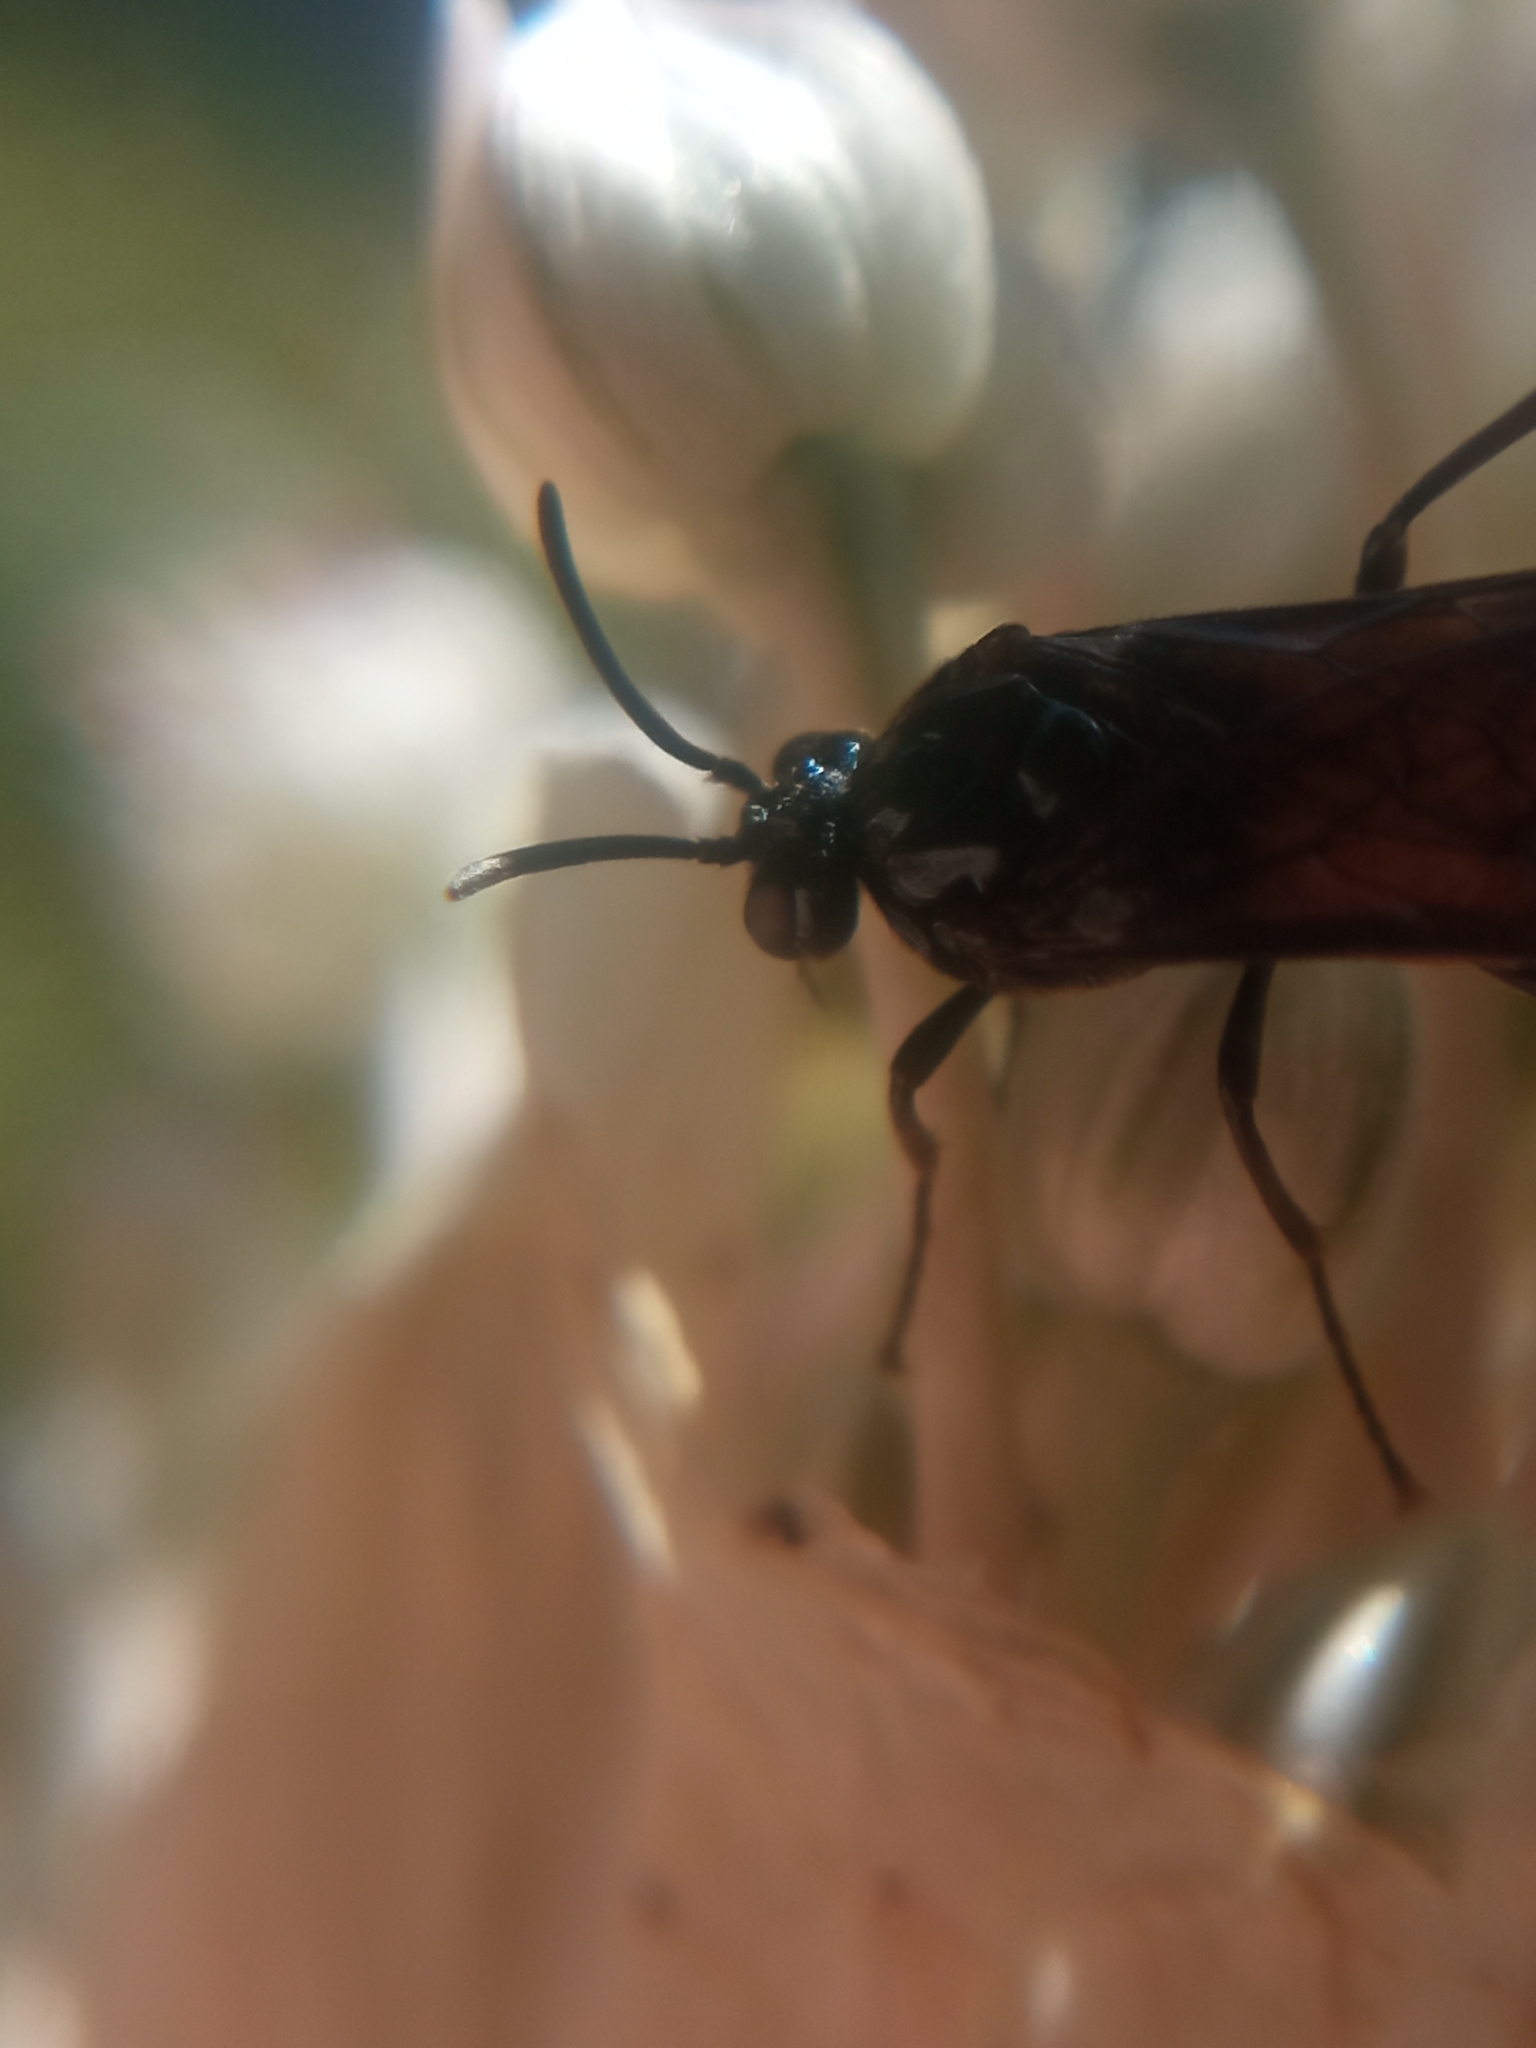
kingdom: Animalia
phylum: Arthropoda
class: Insecta
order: Hymenoptera
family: Argidae
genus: Arge
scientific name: Arge pagana
